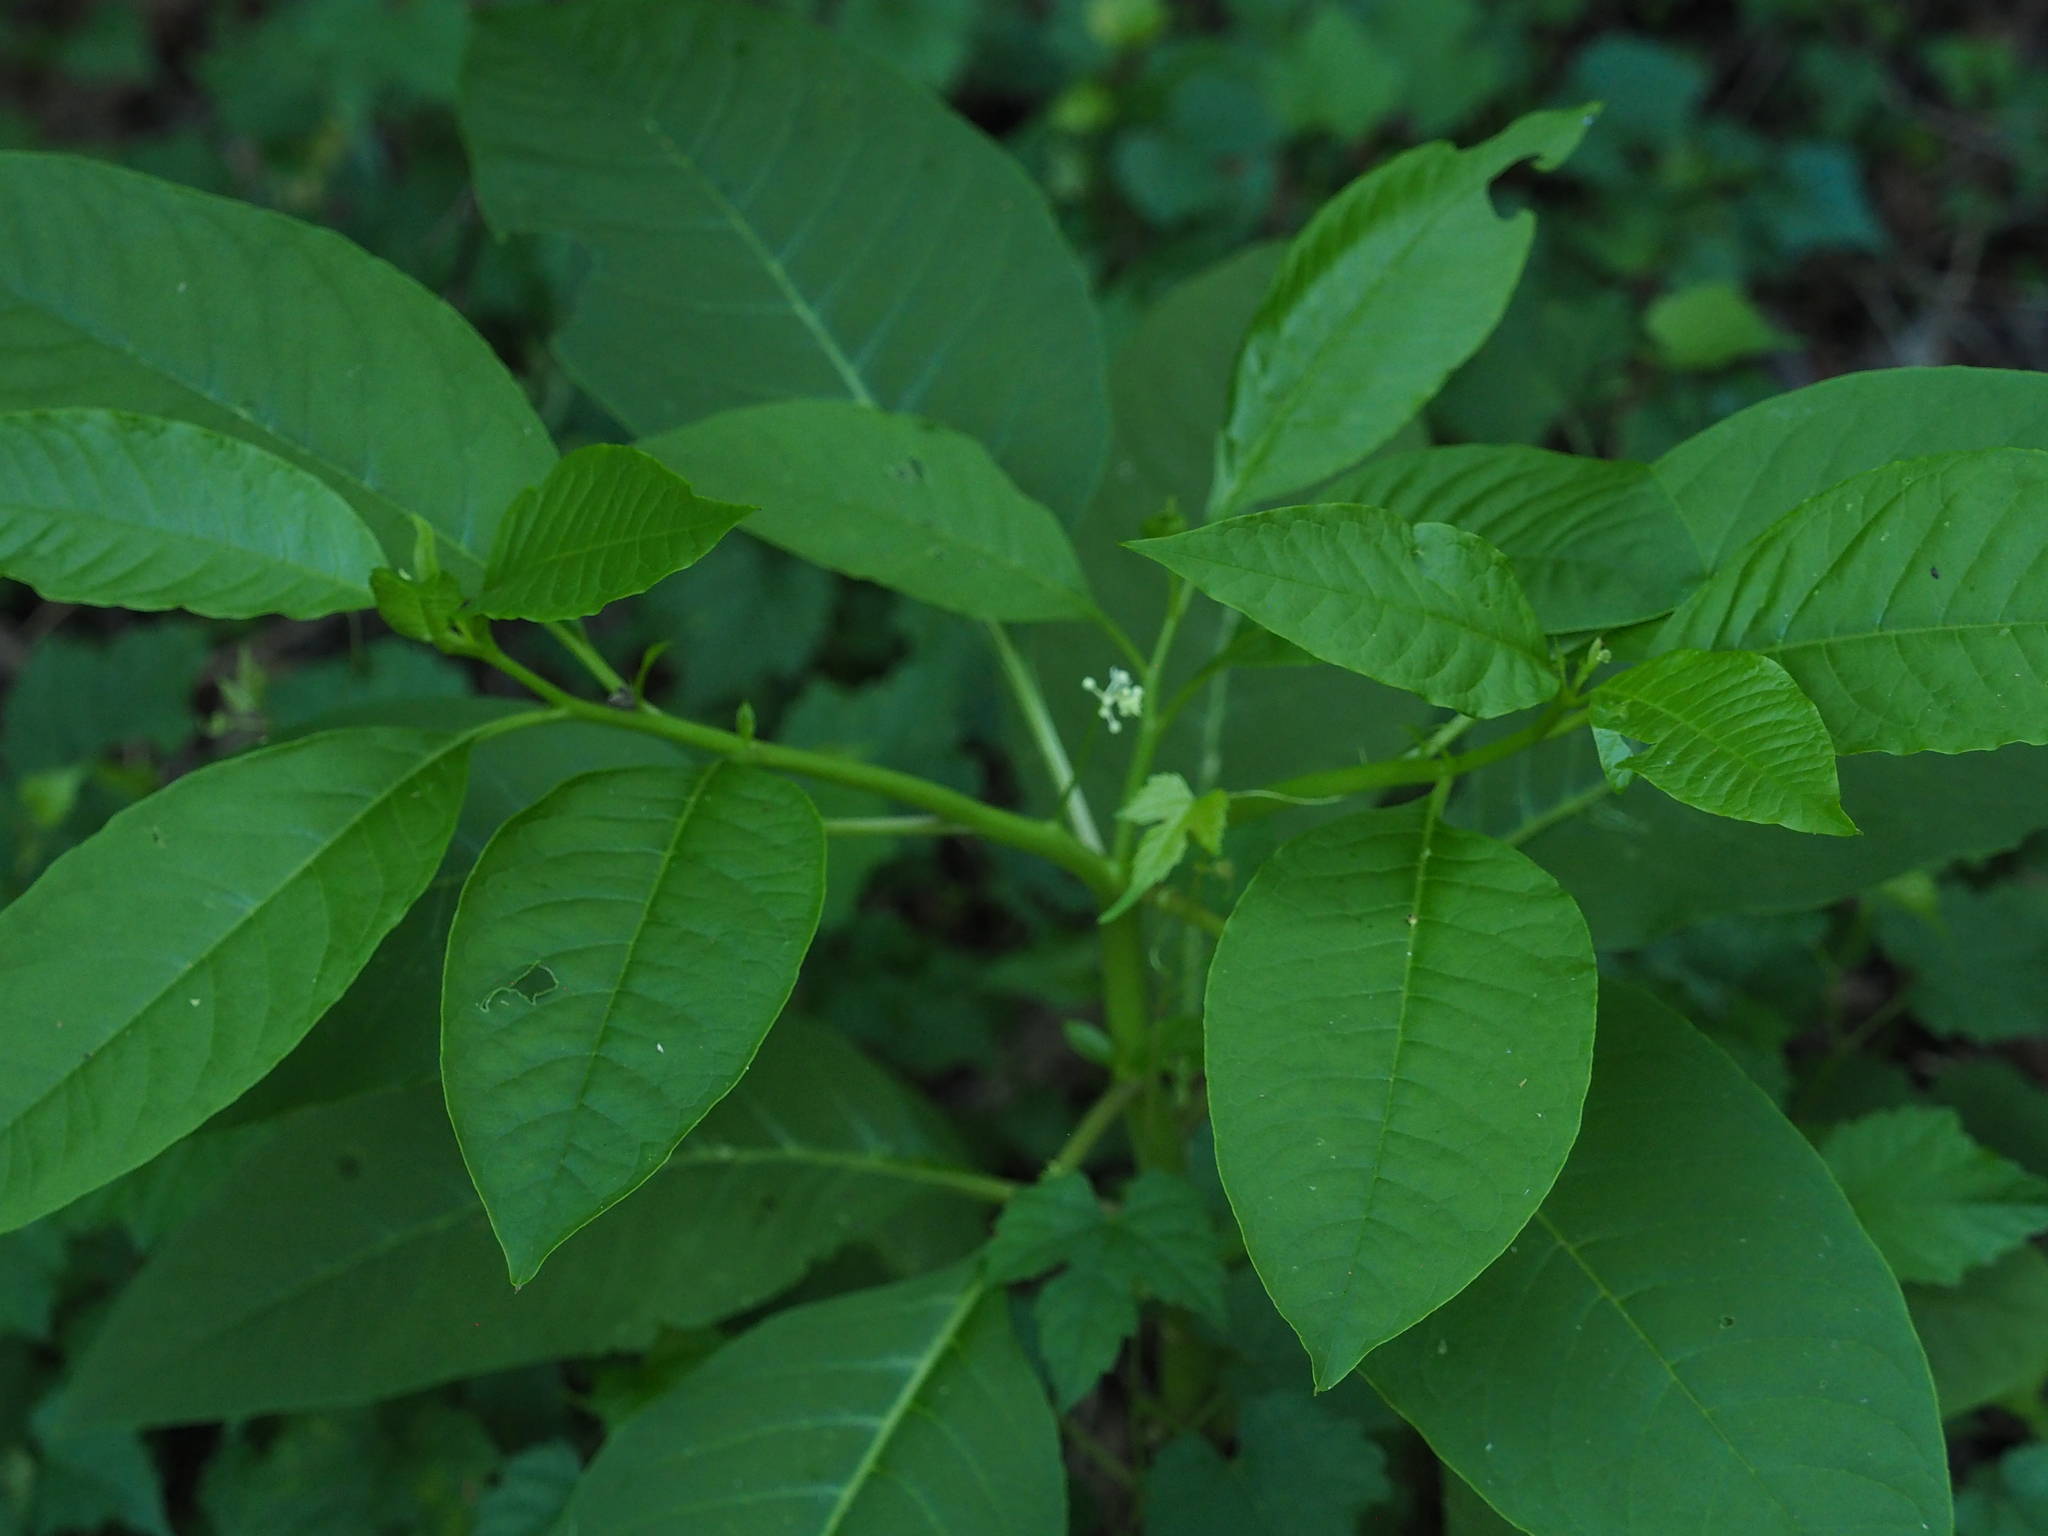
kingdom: Plantae
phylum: Tracheophyta
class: Magnoliopsida
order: Caryophyllales
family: Phytolaccaceae
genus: Phytolacca
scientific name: Phytolacca americana
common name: American pokeweed
